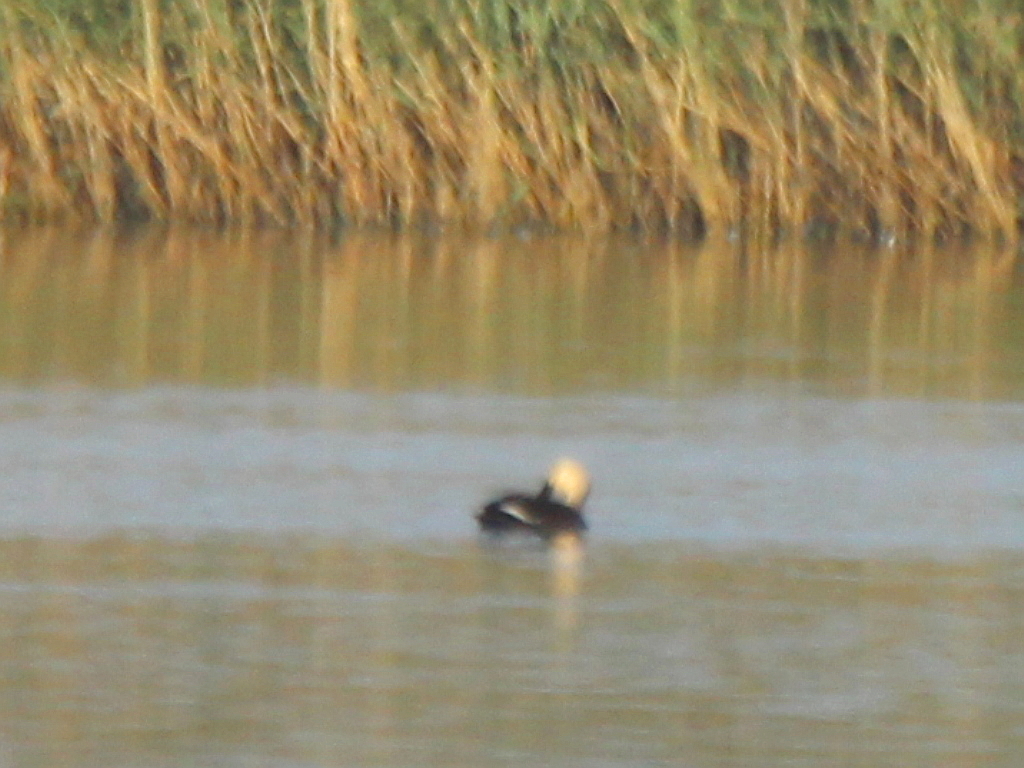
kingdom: Animalia
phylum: Chordata
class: Aves
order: Anseriformes
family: Anatidae
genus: Anas
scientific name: Anas zonorhyncha
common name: Eastern spot-billed duck
